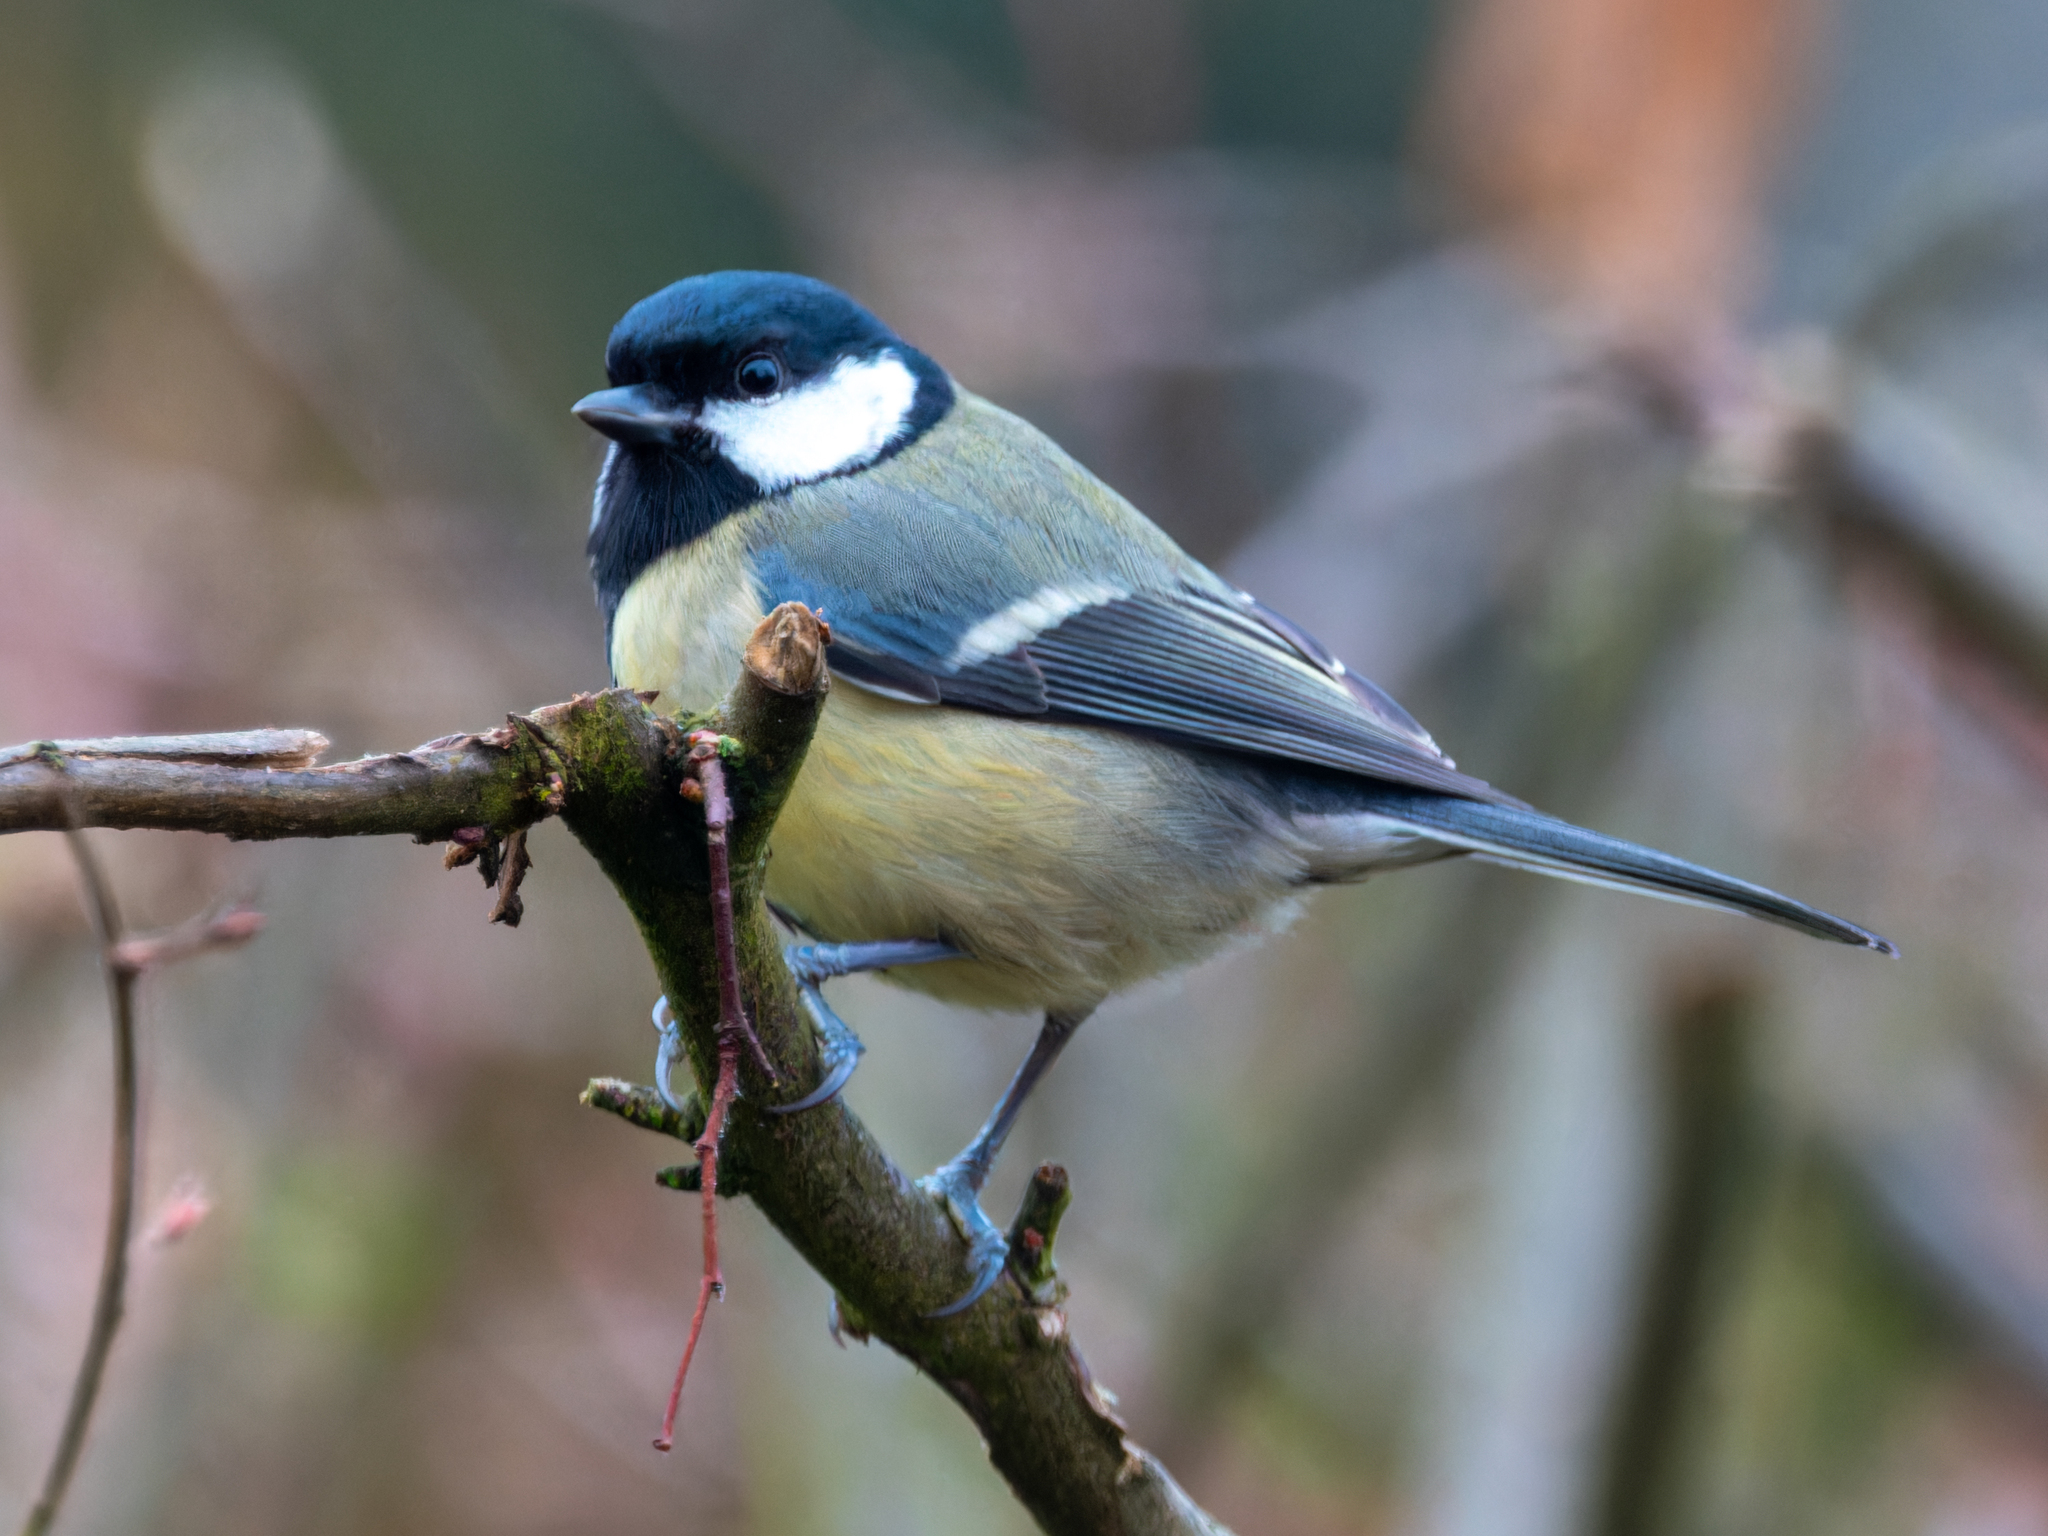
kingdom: Animalia
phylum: Chordata
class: Aves
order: Passeriformes
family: Paridae
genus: Parus
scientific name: Parus major
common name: Great tit
